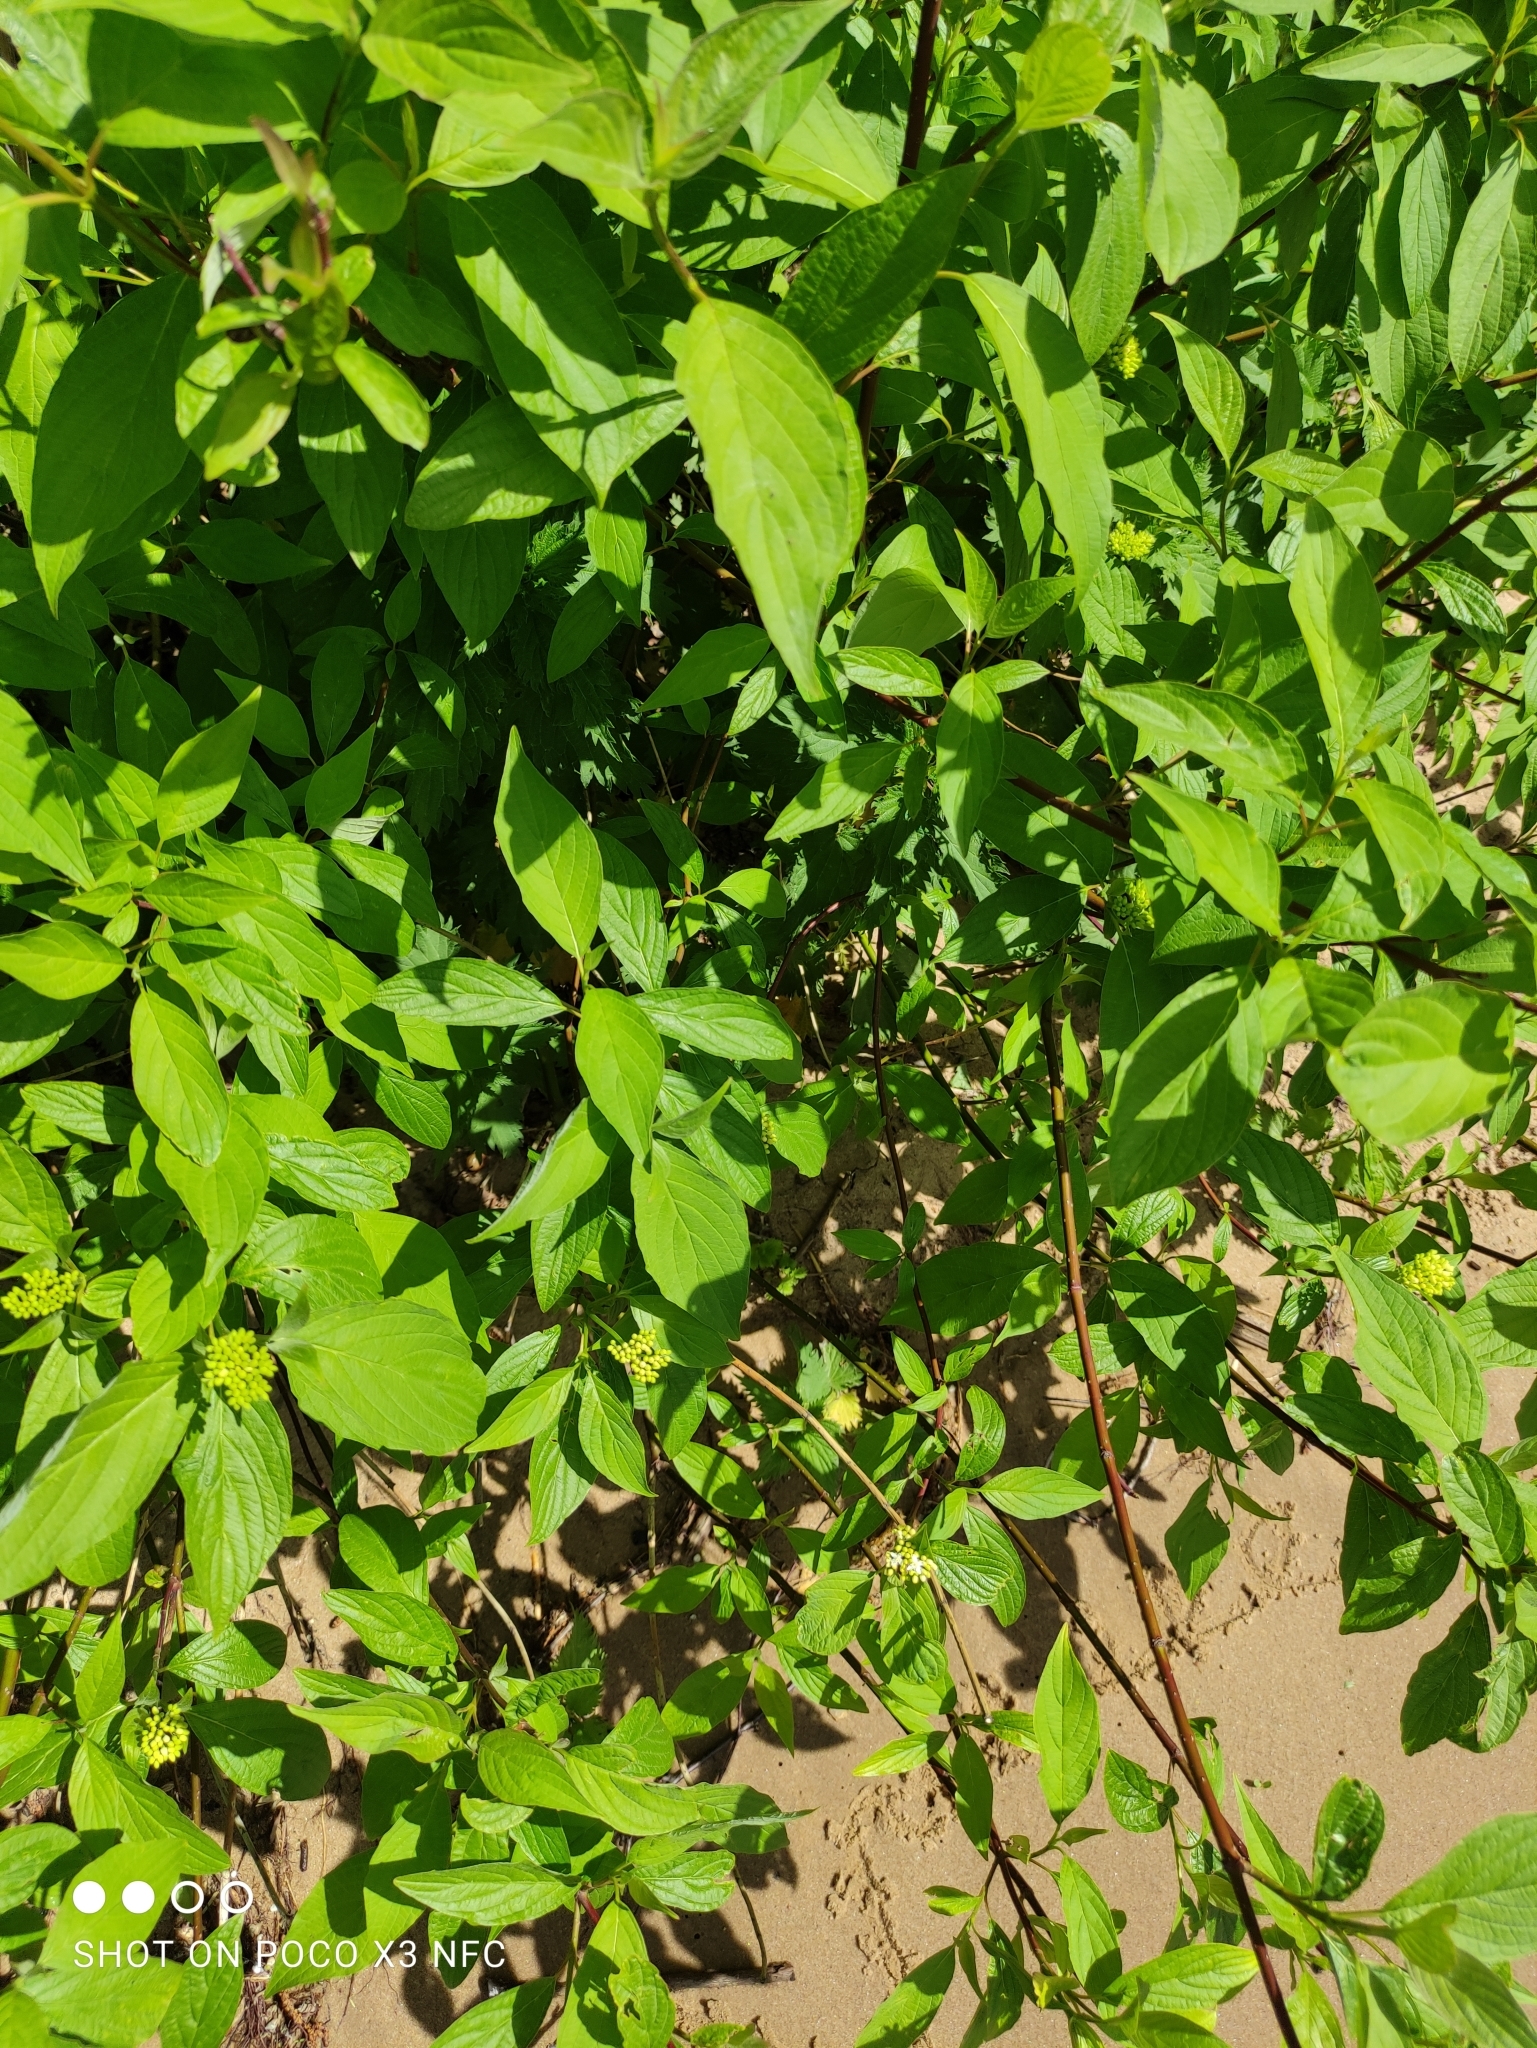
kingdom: Plantae
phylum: Tracheophyta
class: Magnoliopsida
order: Cornales
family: Cornaceae
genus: Cornus
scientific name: Cornus sericea
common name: Red-osier dogwood
